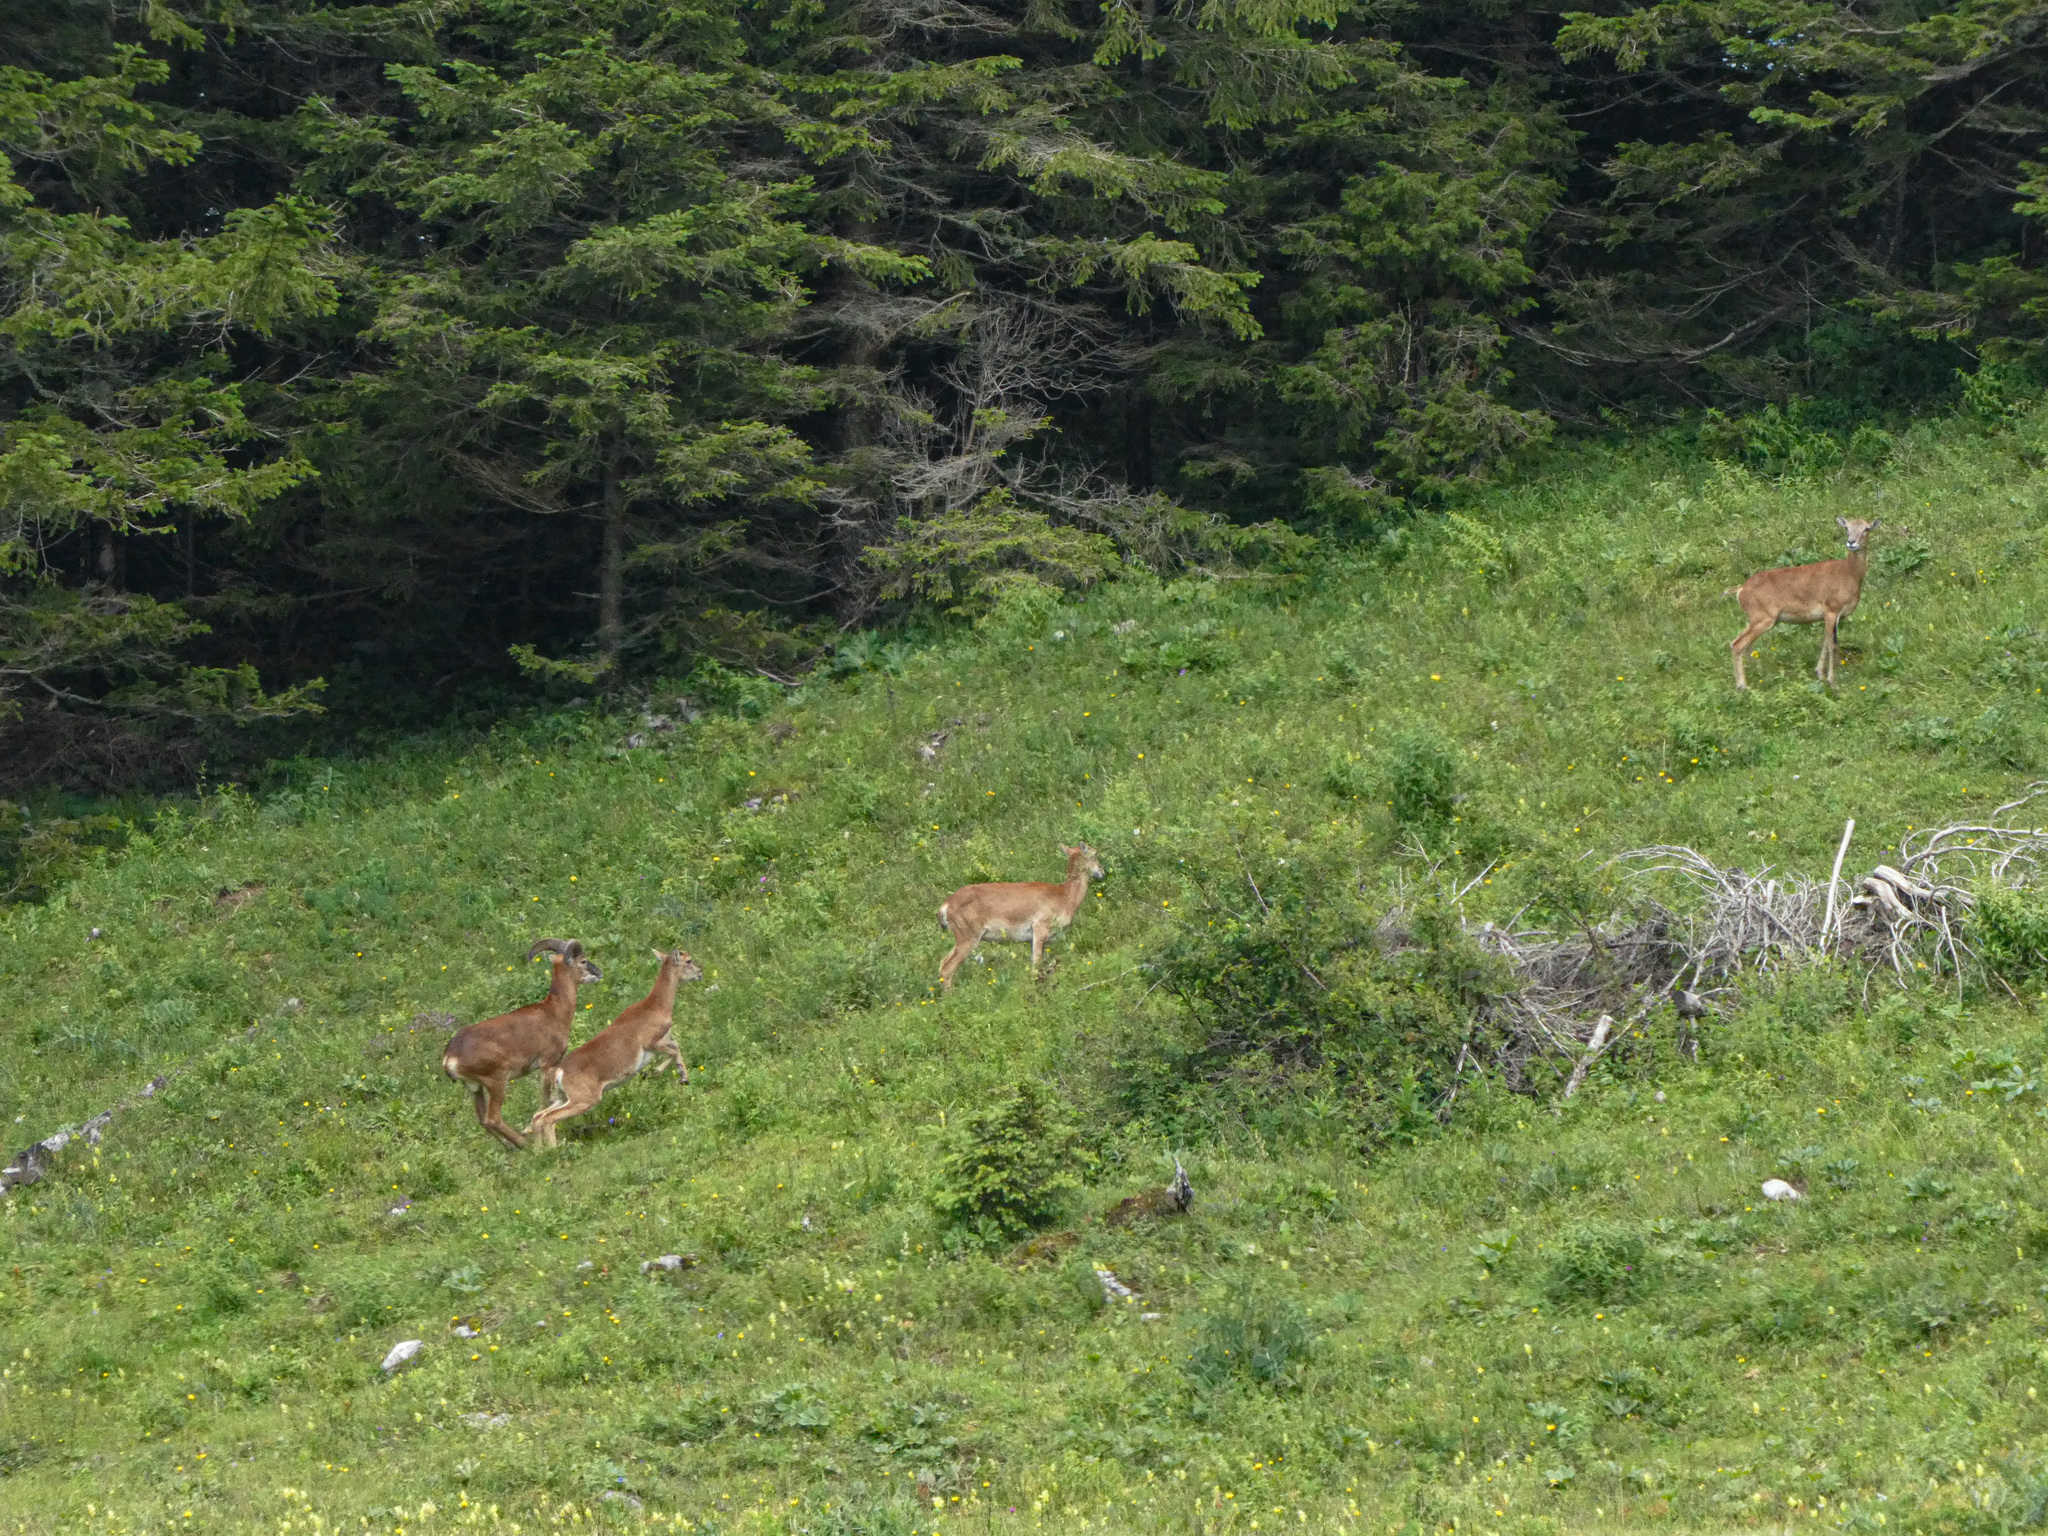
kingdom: Animalia
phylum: Chordata
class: Mammalia
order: Artiodactyla
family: Bovidae
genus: Ovis
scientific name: Ovis aries
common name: Domestic sheep
